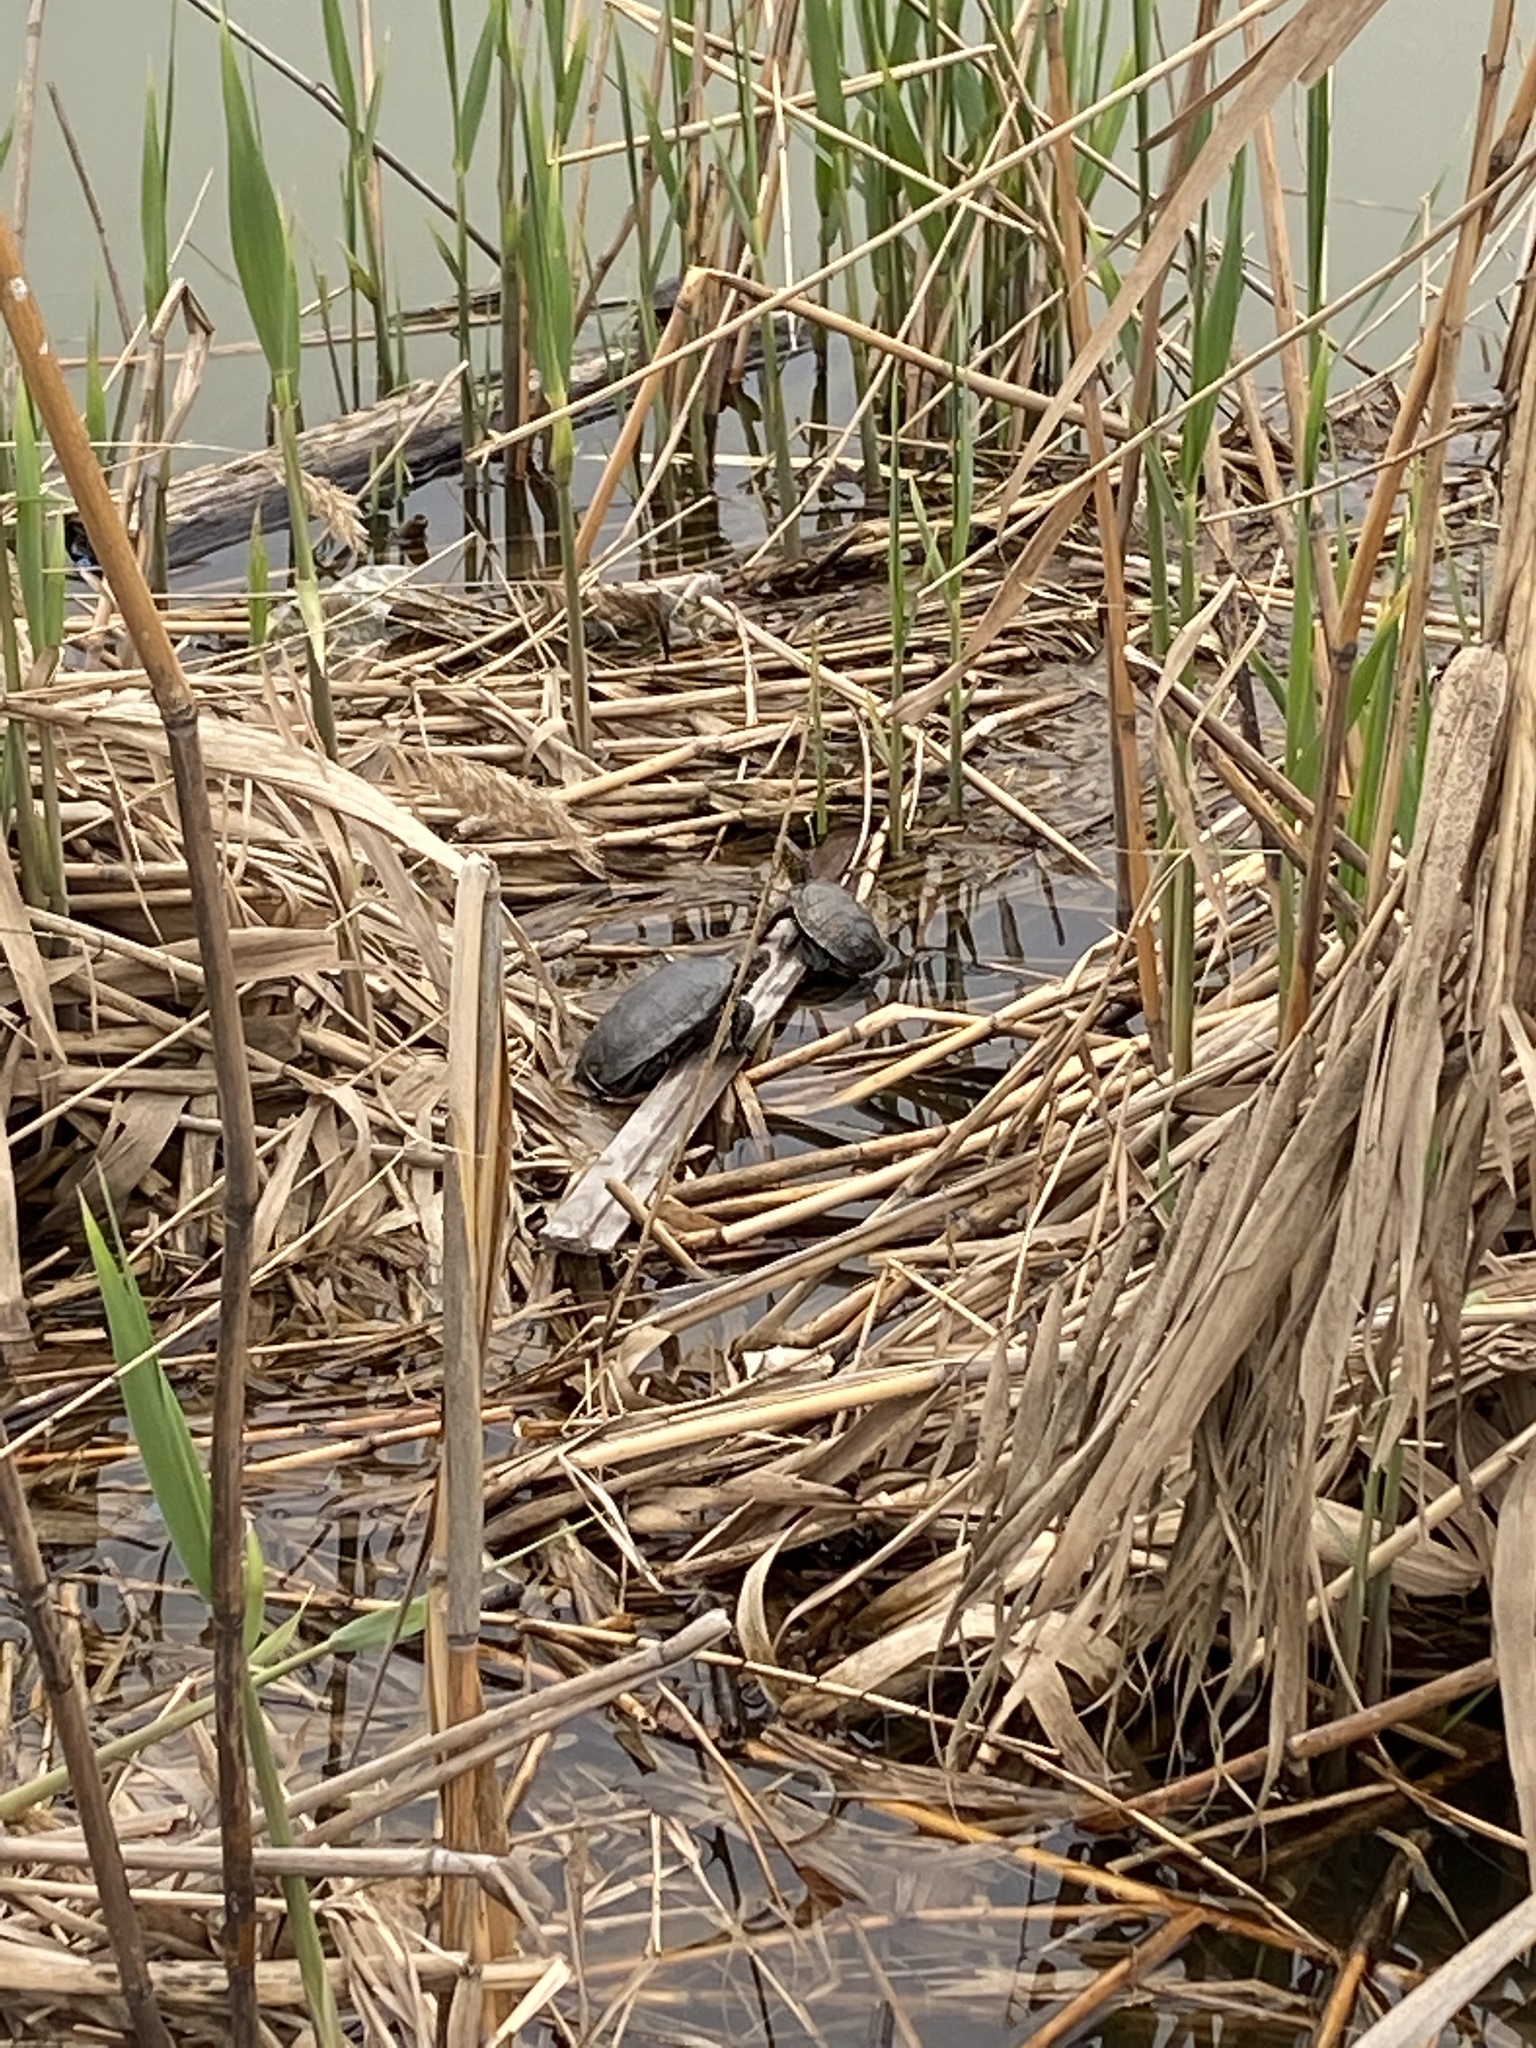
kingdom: Animalia
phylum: Chordata
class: Testudines
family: Emydidae
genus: Emys
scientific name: Emys orbicularis
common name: European pond turtle
